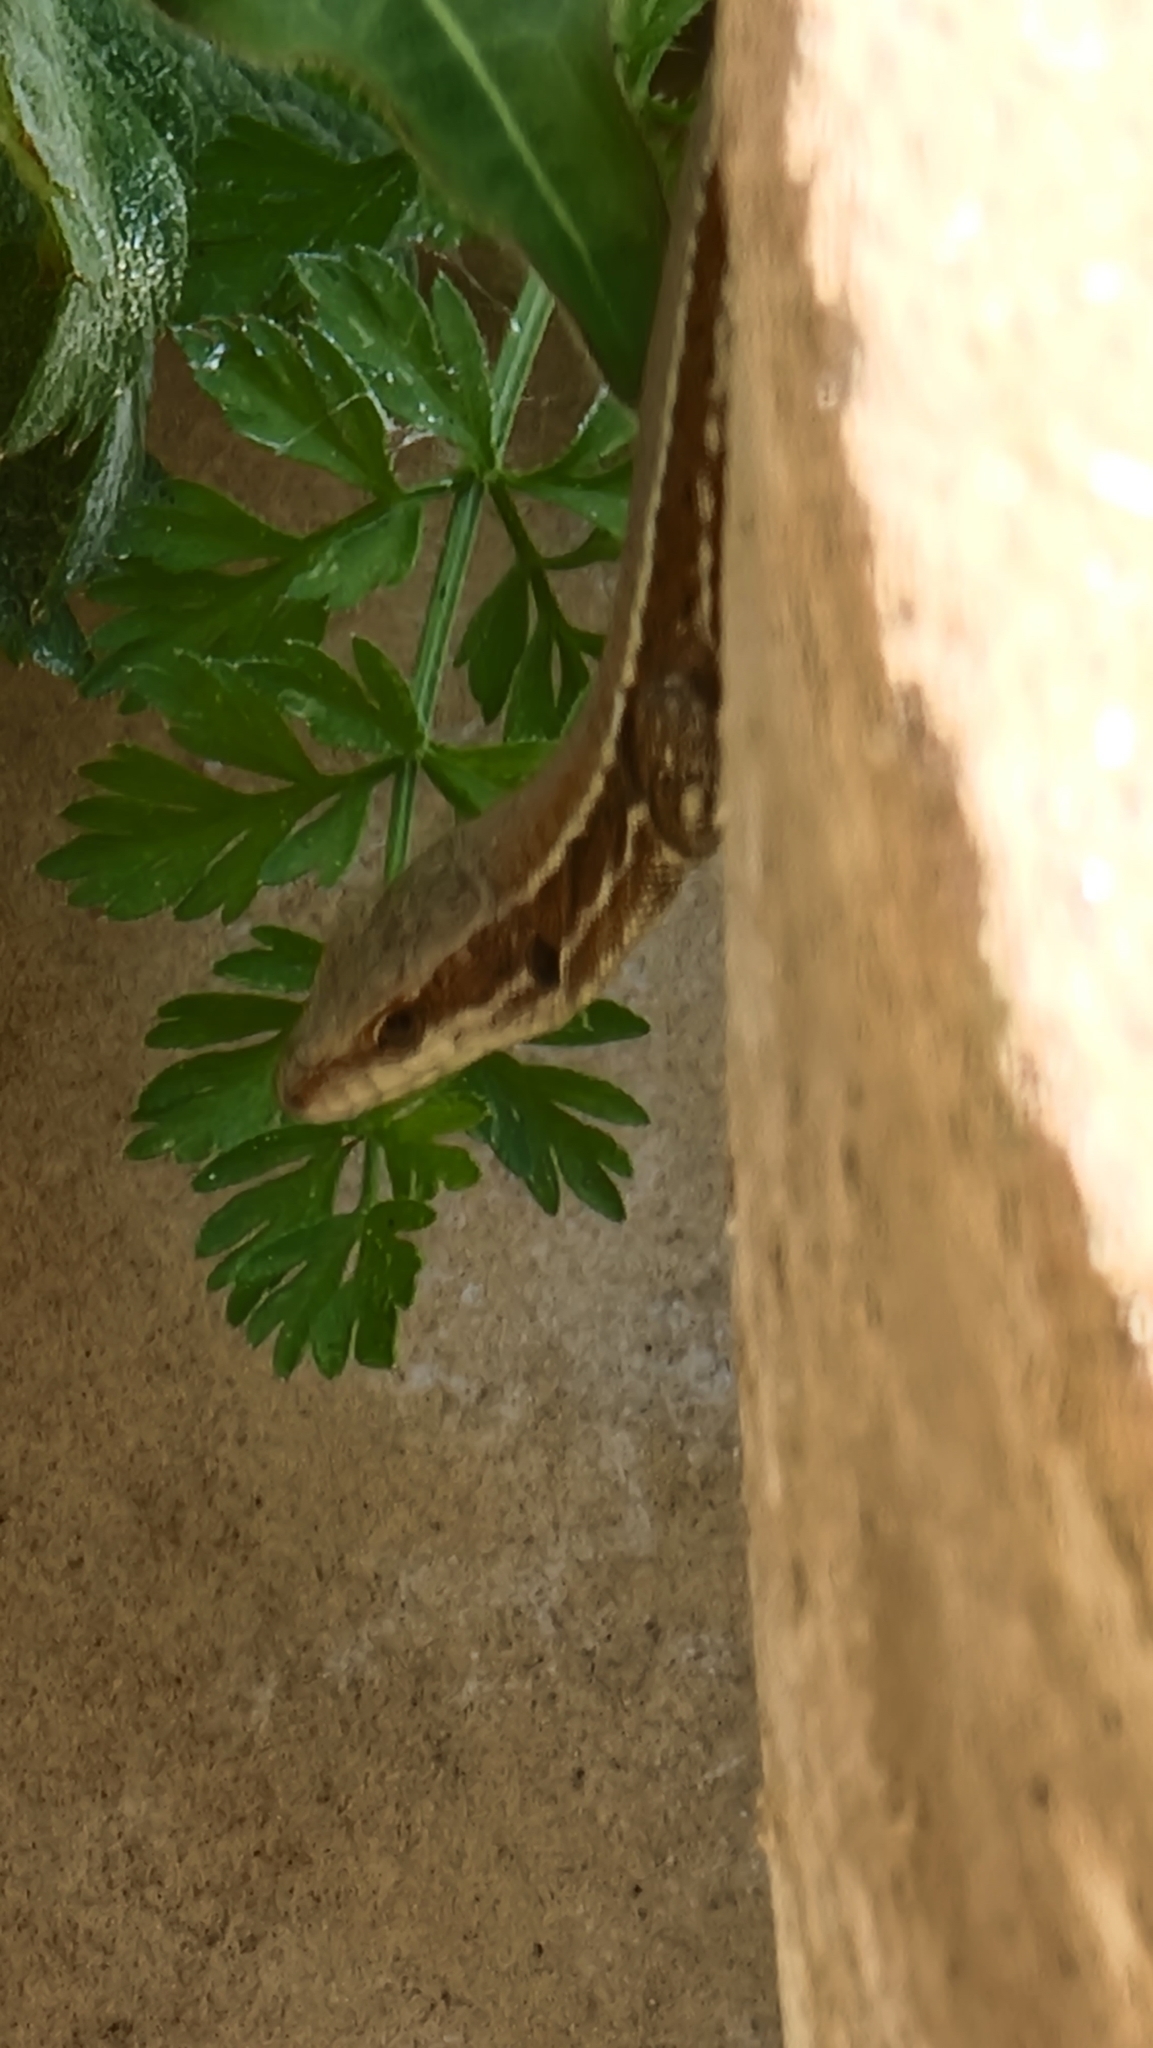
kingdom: Animalia
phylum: Chordata
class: Squamata
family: Lacertidae
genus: Podarcis
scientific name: Podarcis muralis
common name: Common wall lizard
